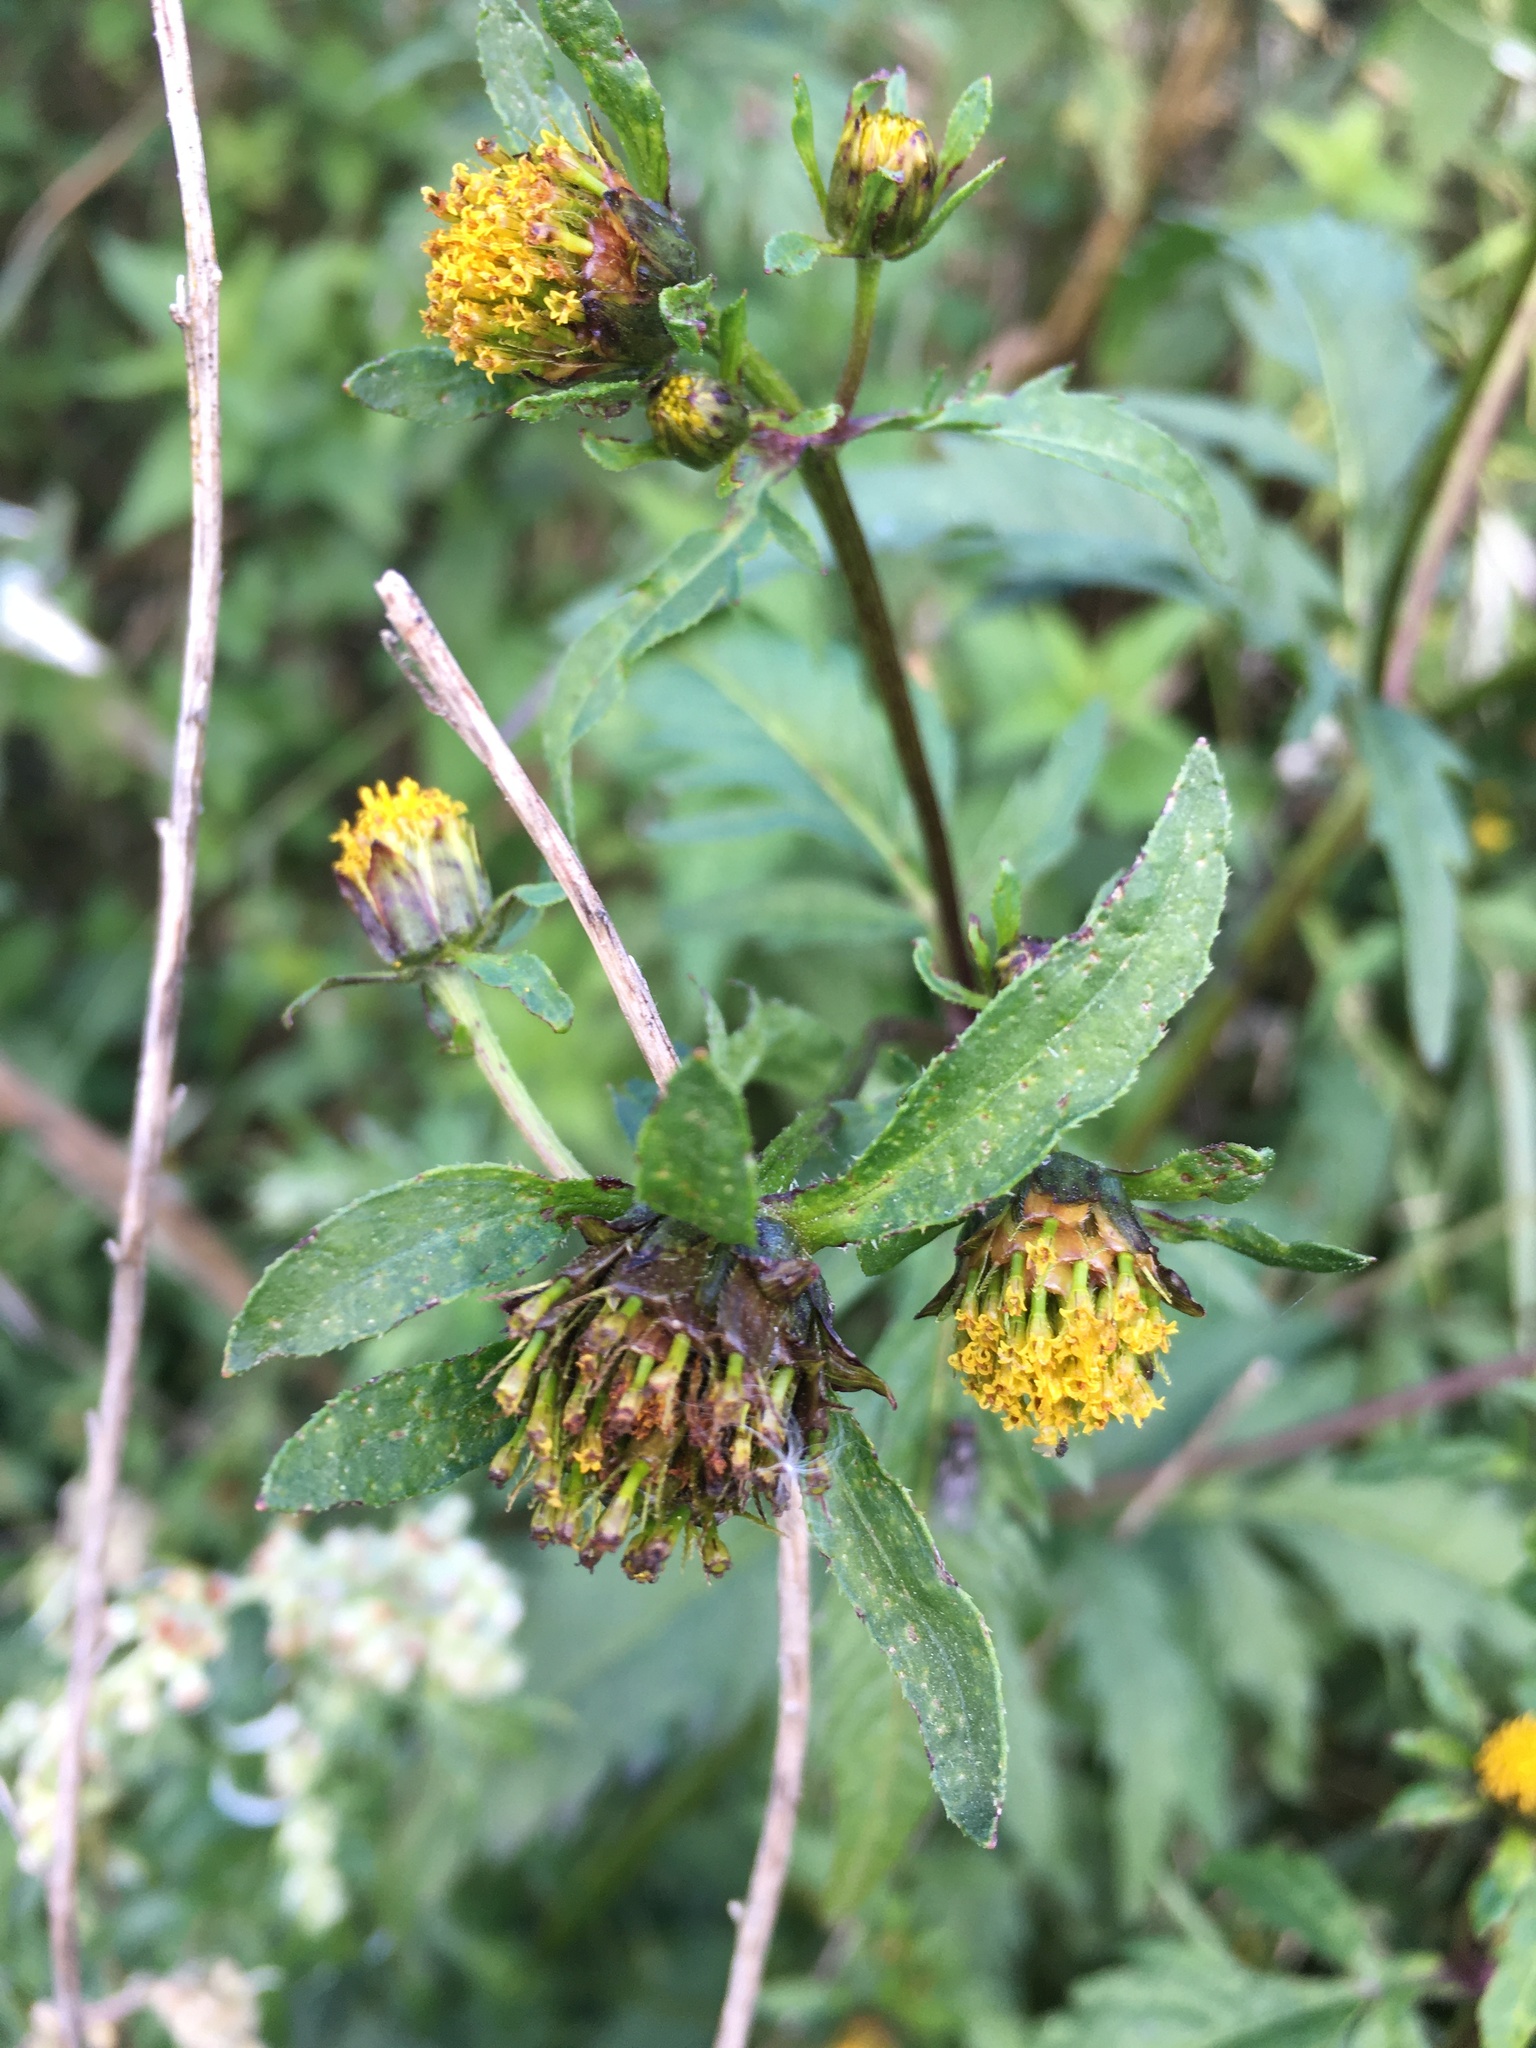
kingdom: Plantae
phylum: Tracheophyta
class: Magnoliopsida
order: Asterales
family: Asteraceae
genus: Bidens
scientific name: Bidens tripartita
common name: Trifid bur-marigold
